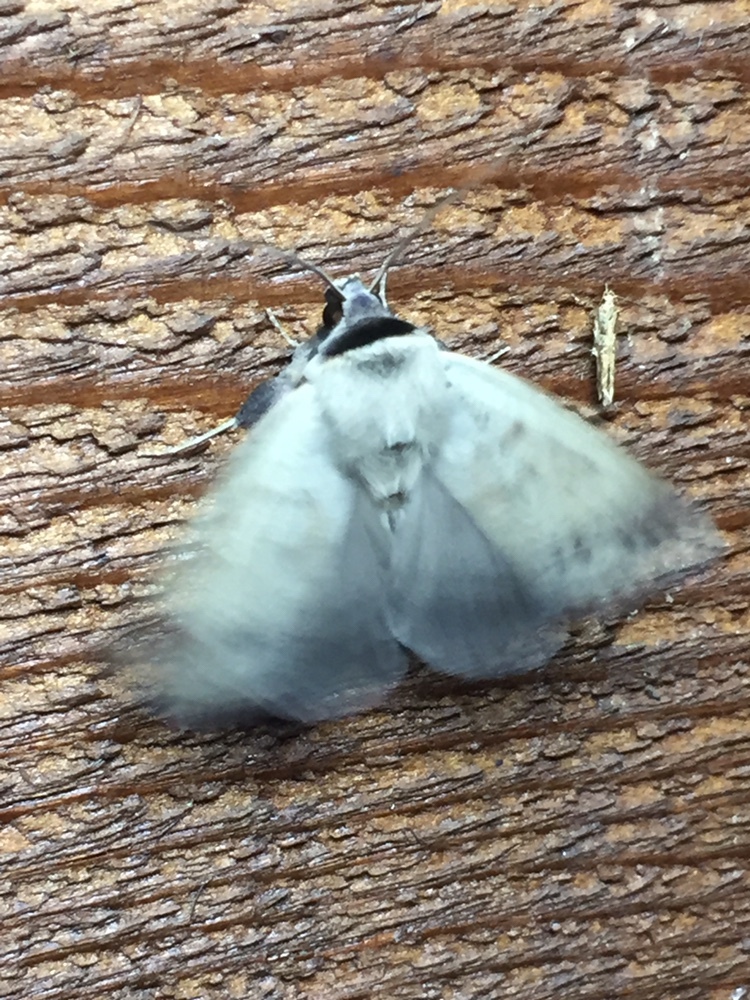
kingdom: Animalia
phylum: Arthropoda
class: Insecta
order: Lepidoptera
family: Erebidae
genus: Pantydia
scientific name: Pantydia sparsa
